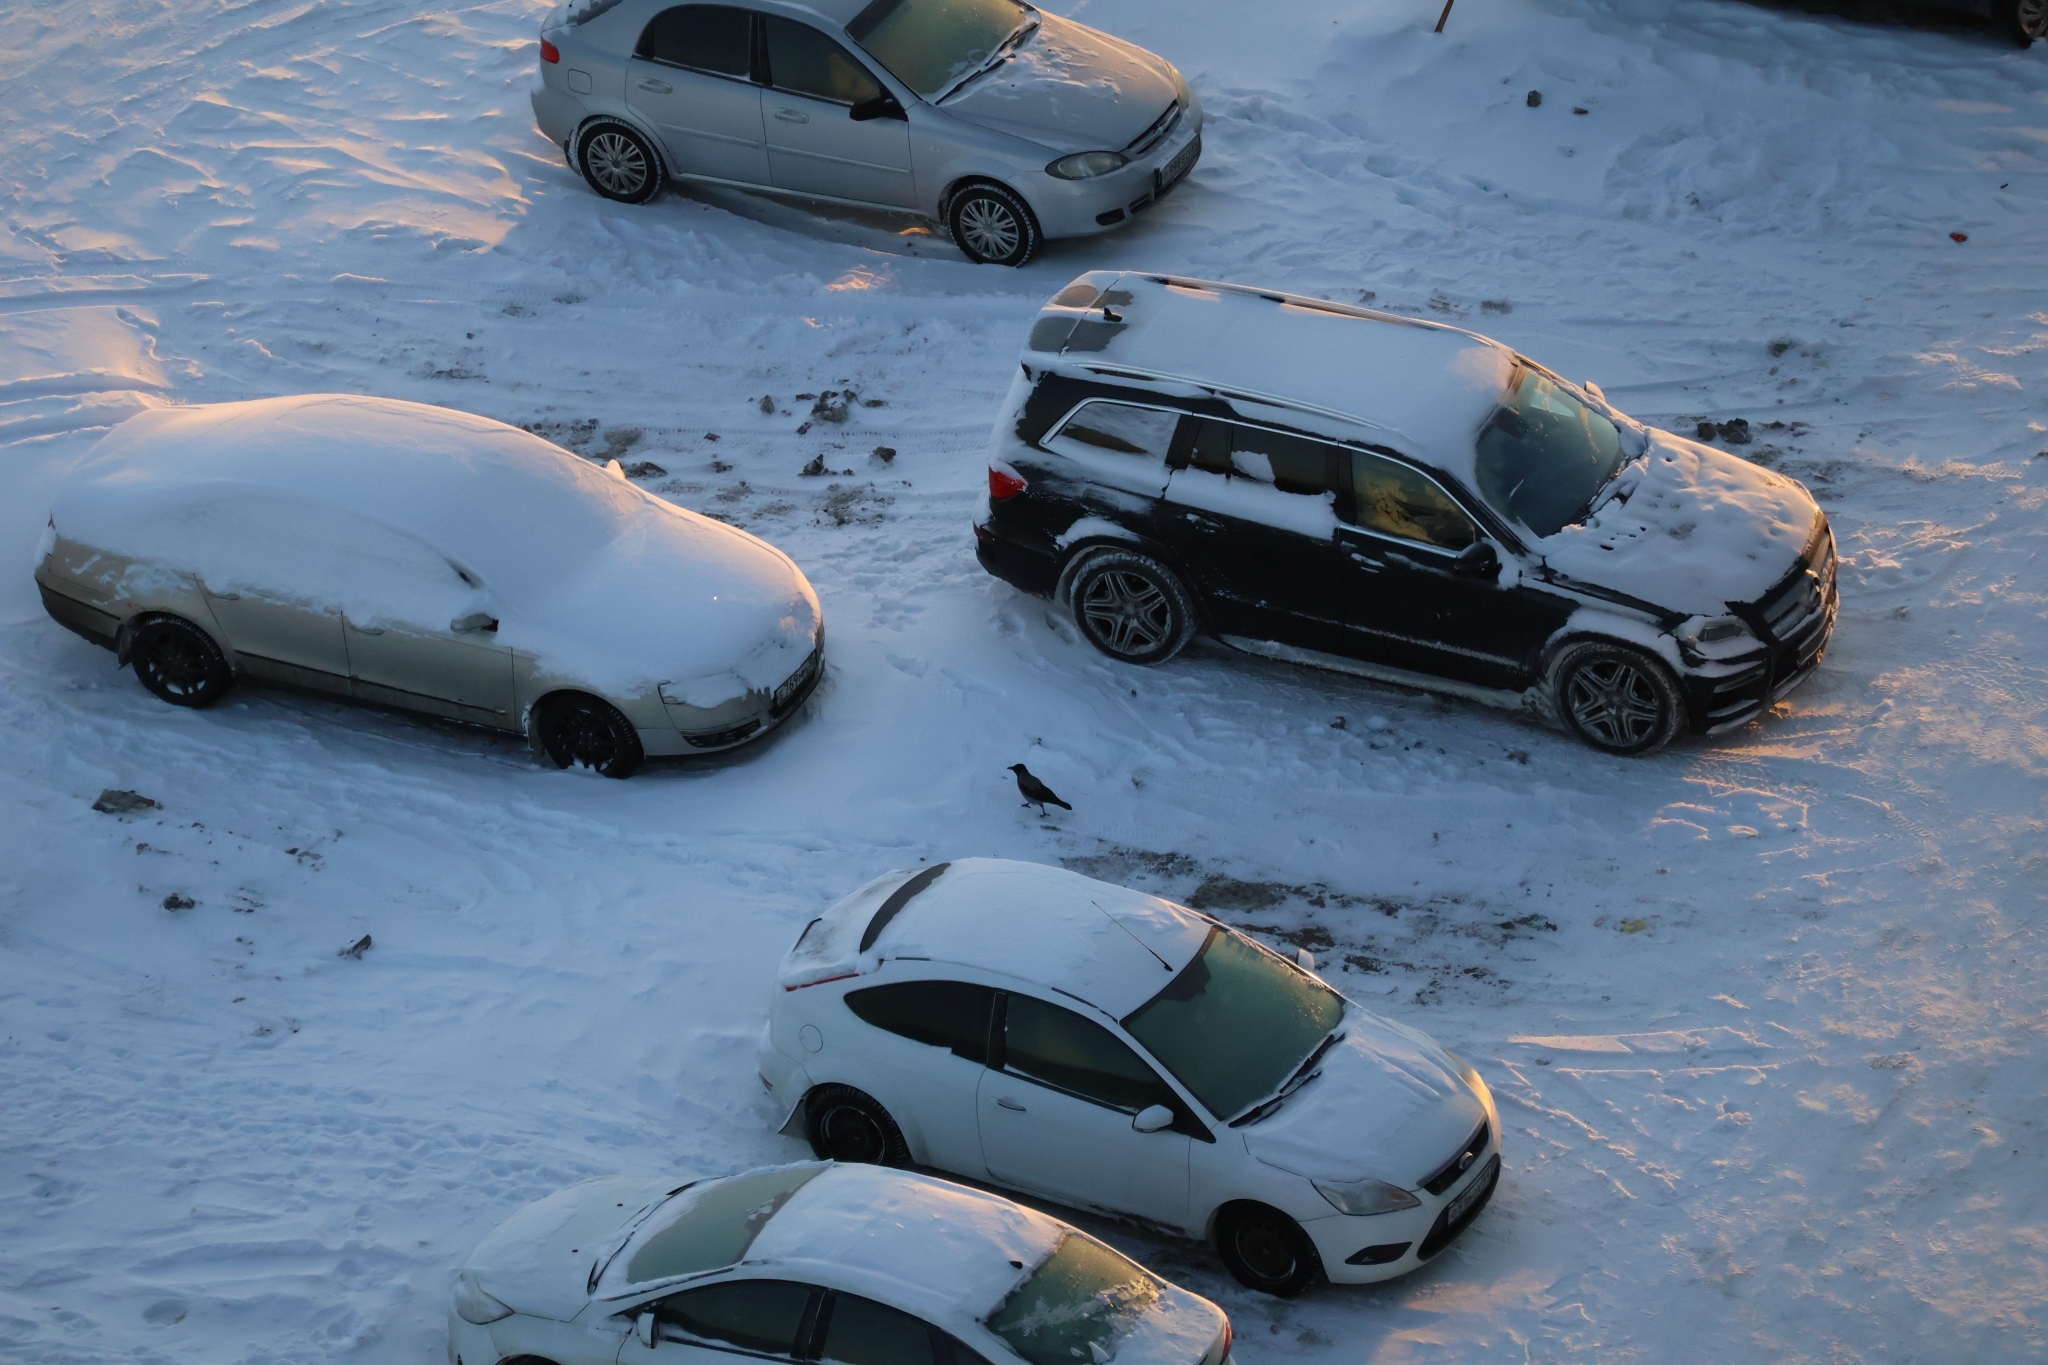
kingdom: Animalia
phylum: Chordata
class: Aves
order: Passeriformes
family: Corvidae
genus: Corvus
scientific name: Corvus cornix
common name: Hooded crow
